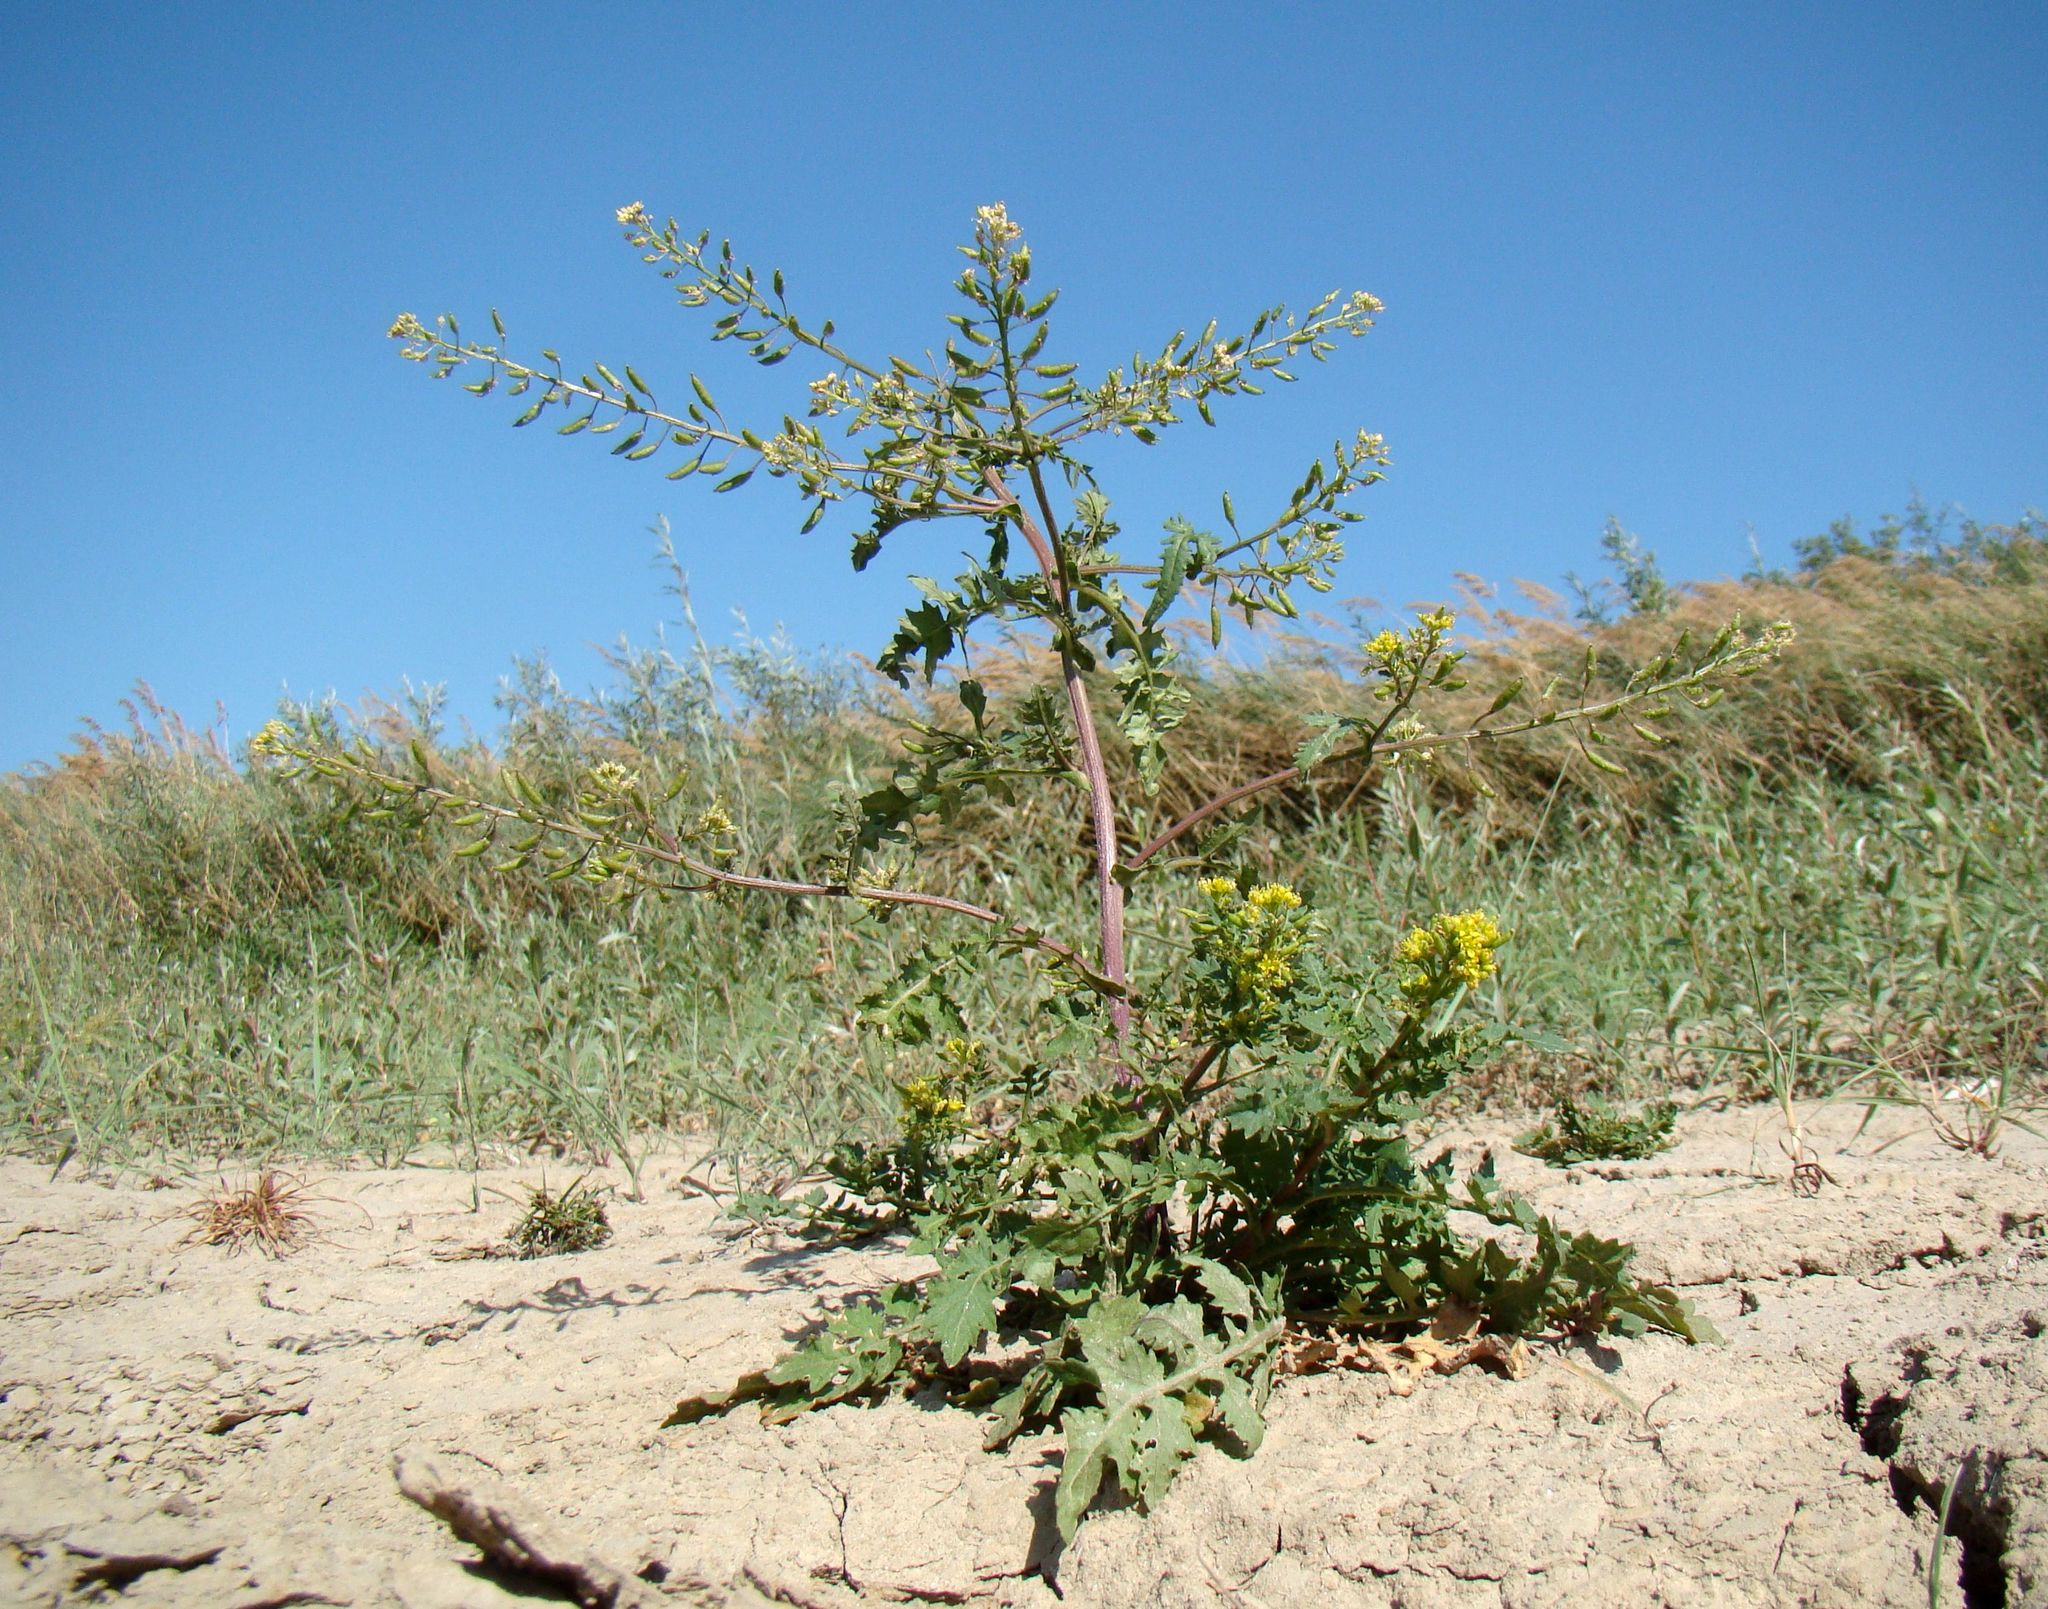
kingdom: Plantae
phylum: Tracheophyta
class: Magnoliopsida
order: Brassicales
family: Brassicaceae
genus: Rorippa
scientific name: Rorippa palustris
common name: Marsh yellow-cress
